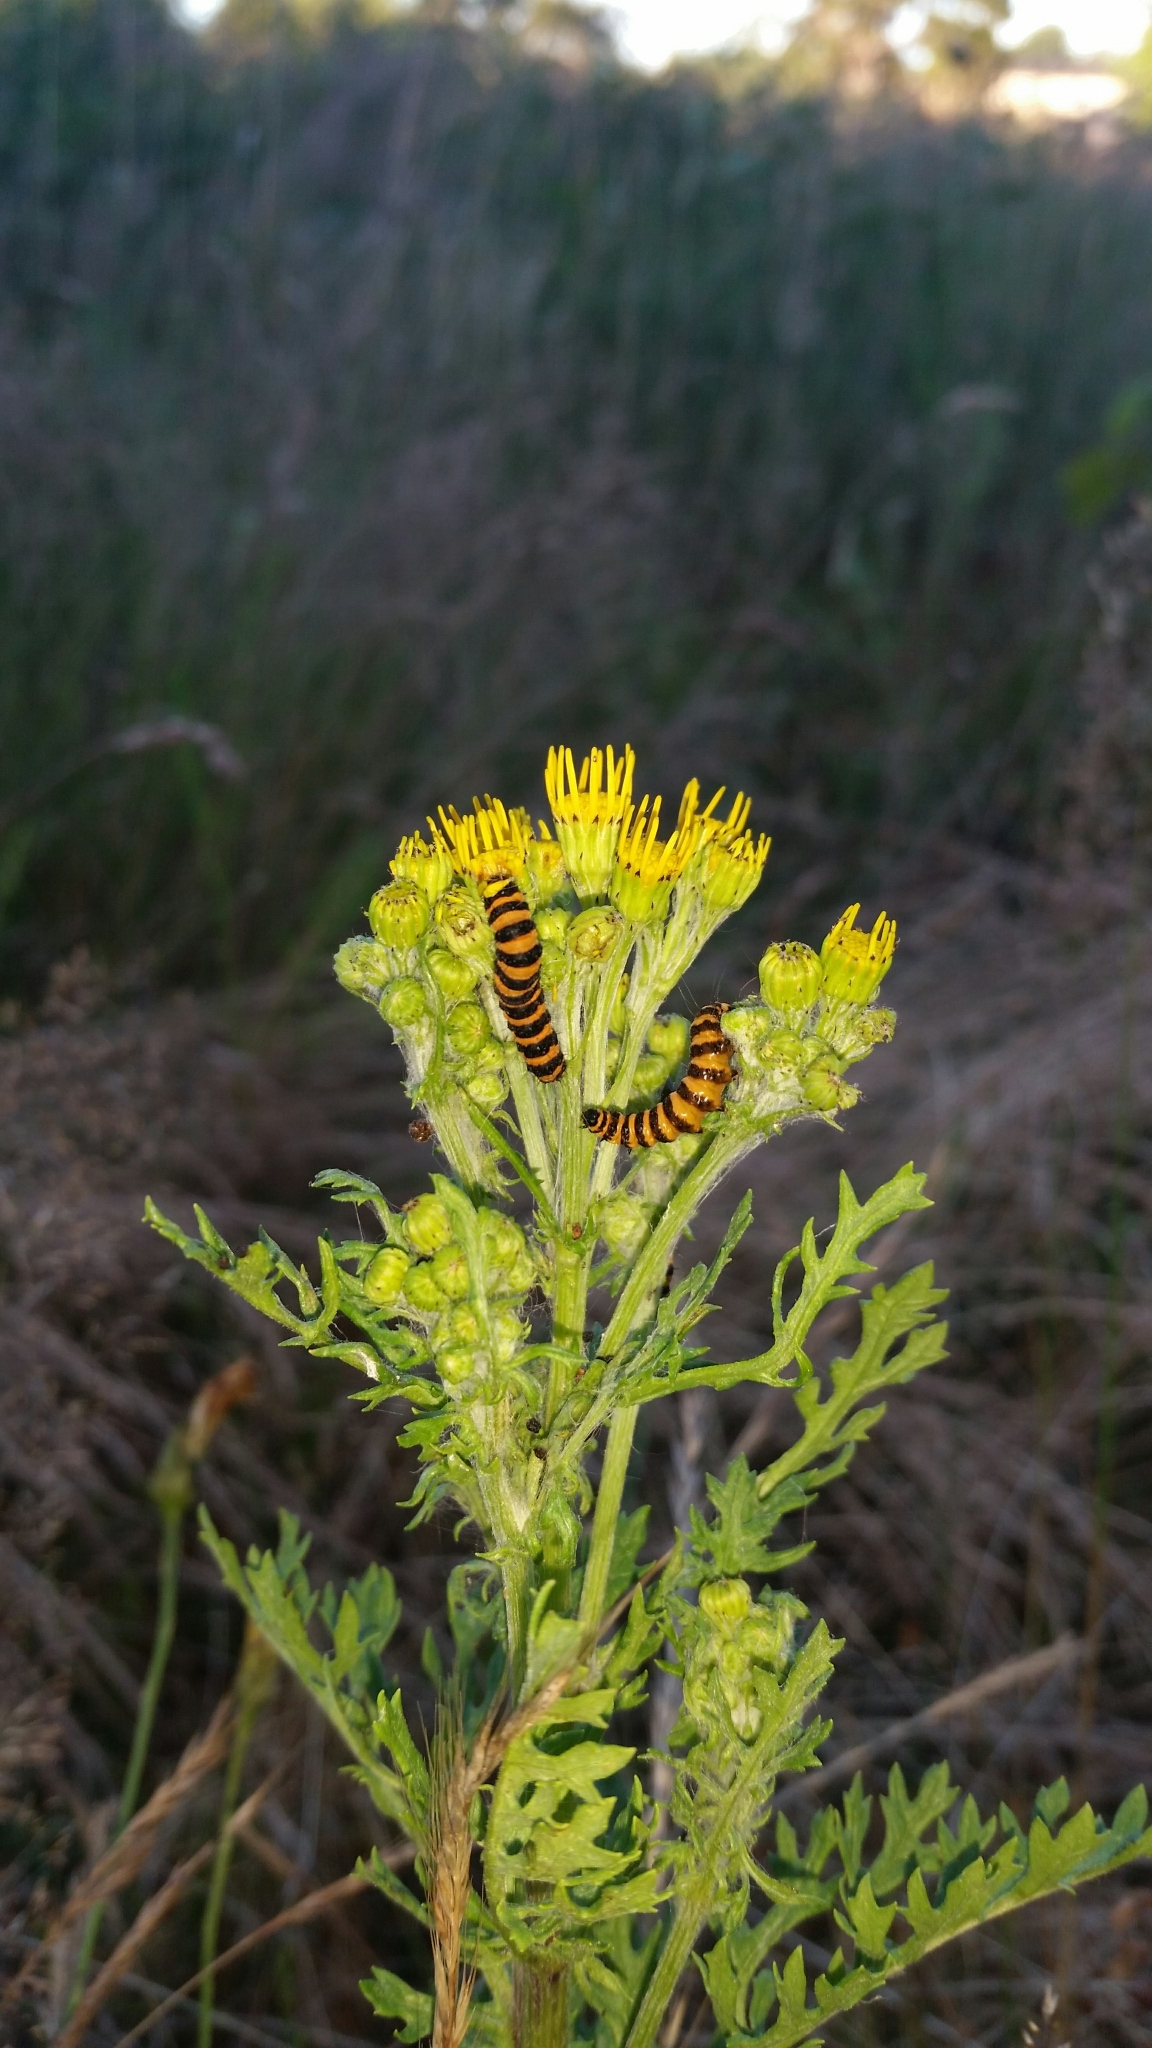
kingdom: Plantae
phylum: Tracheophyta
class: Magnoliopsida
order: Asterales
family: Asteraceae
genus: Jacobaea
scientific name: Jacobaea vulgaris
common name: Stinking willie
